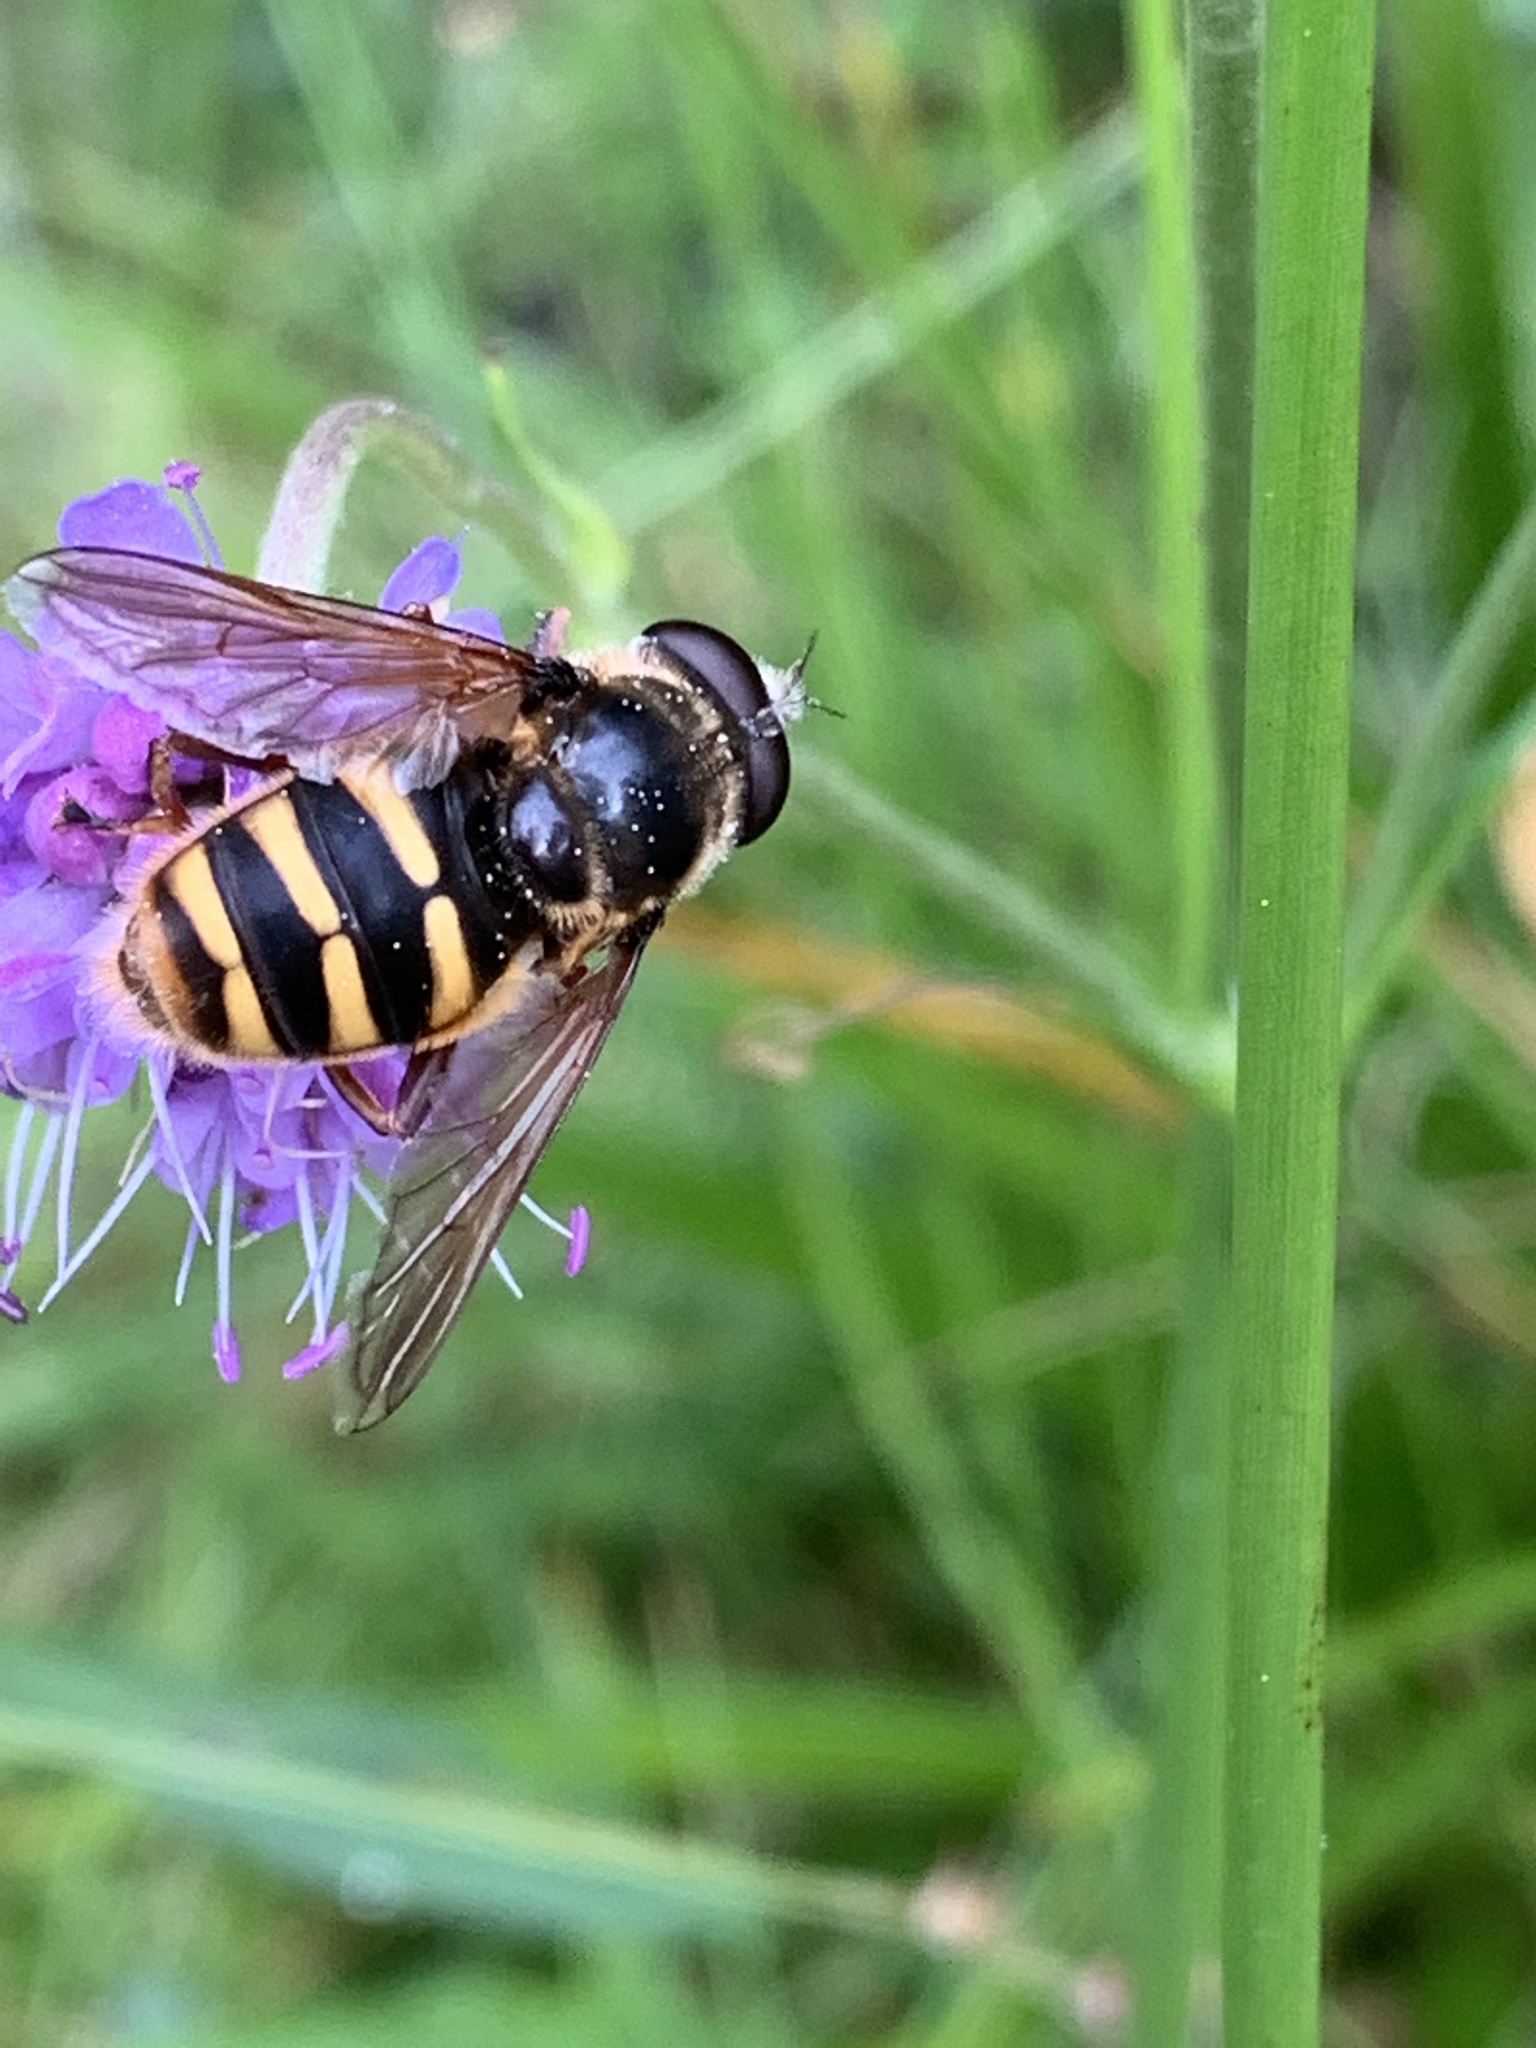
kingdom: Animalia
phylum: Arthropoda
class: Insecta
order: Diptera
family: Syrphidae
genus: Sericomyia
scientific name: Sericomyia silentis
